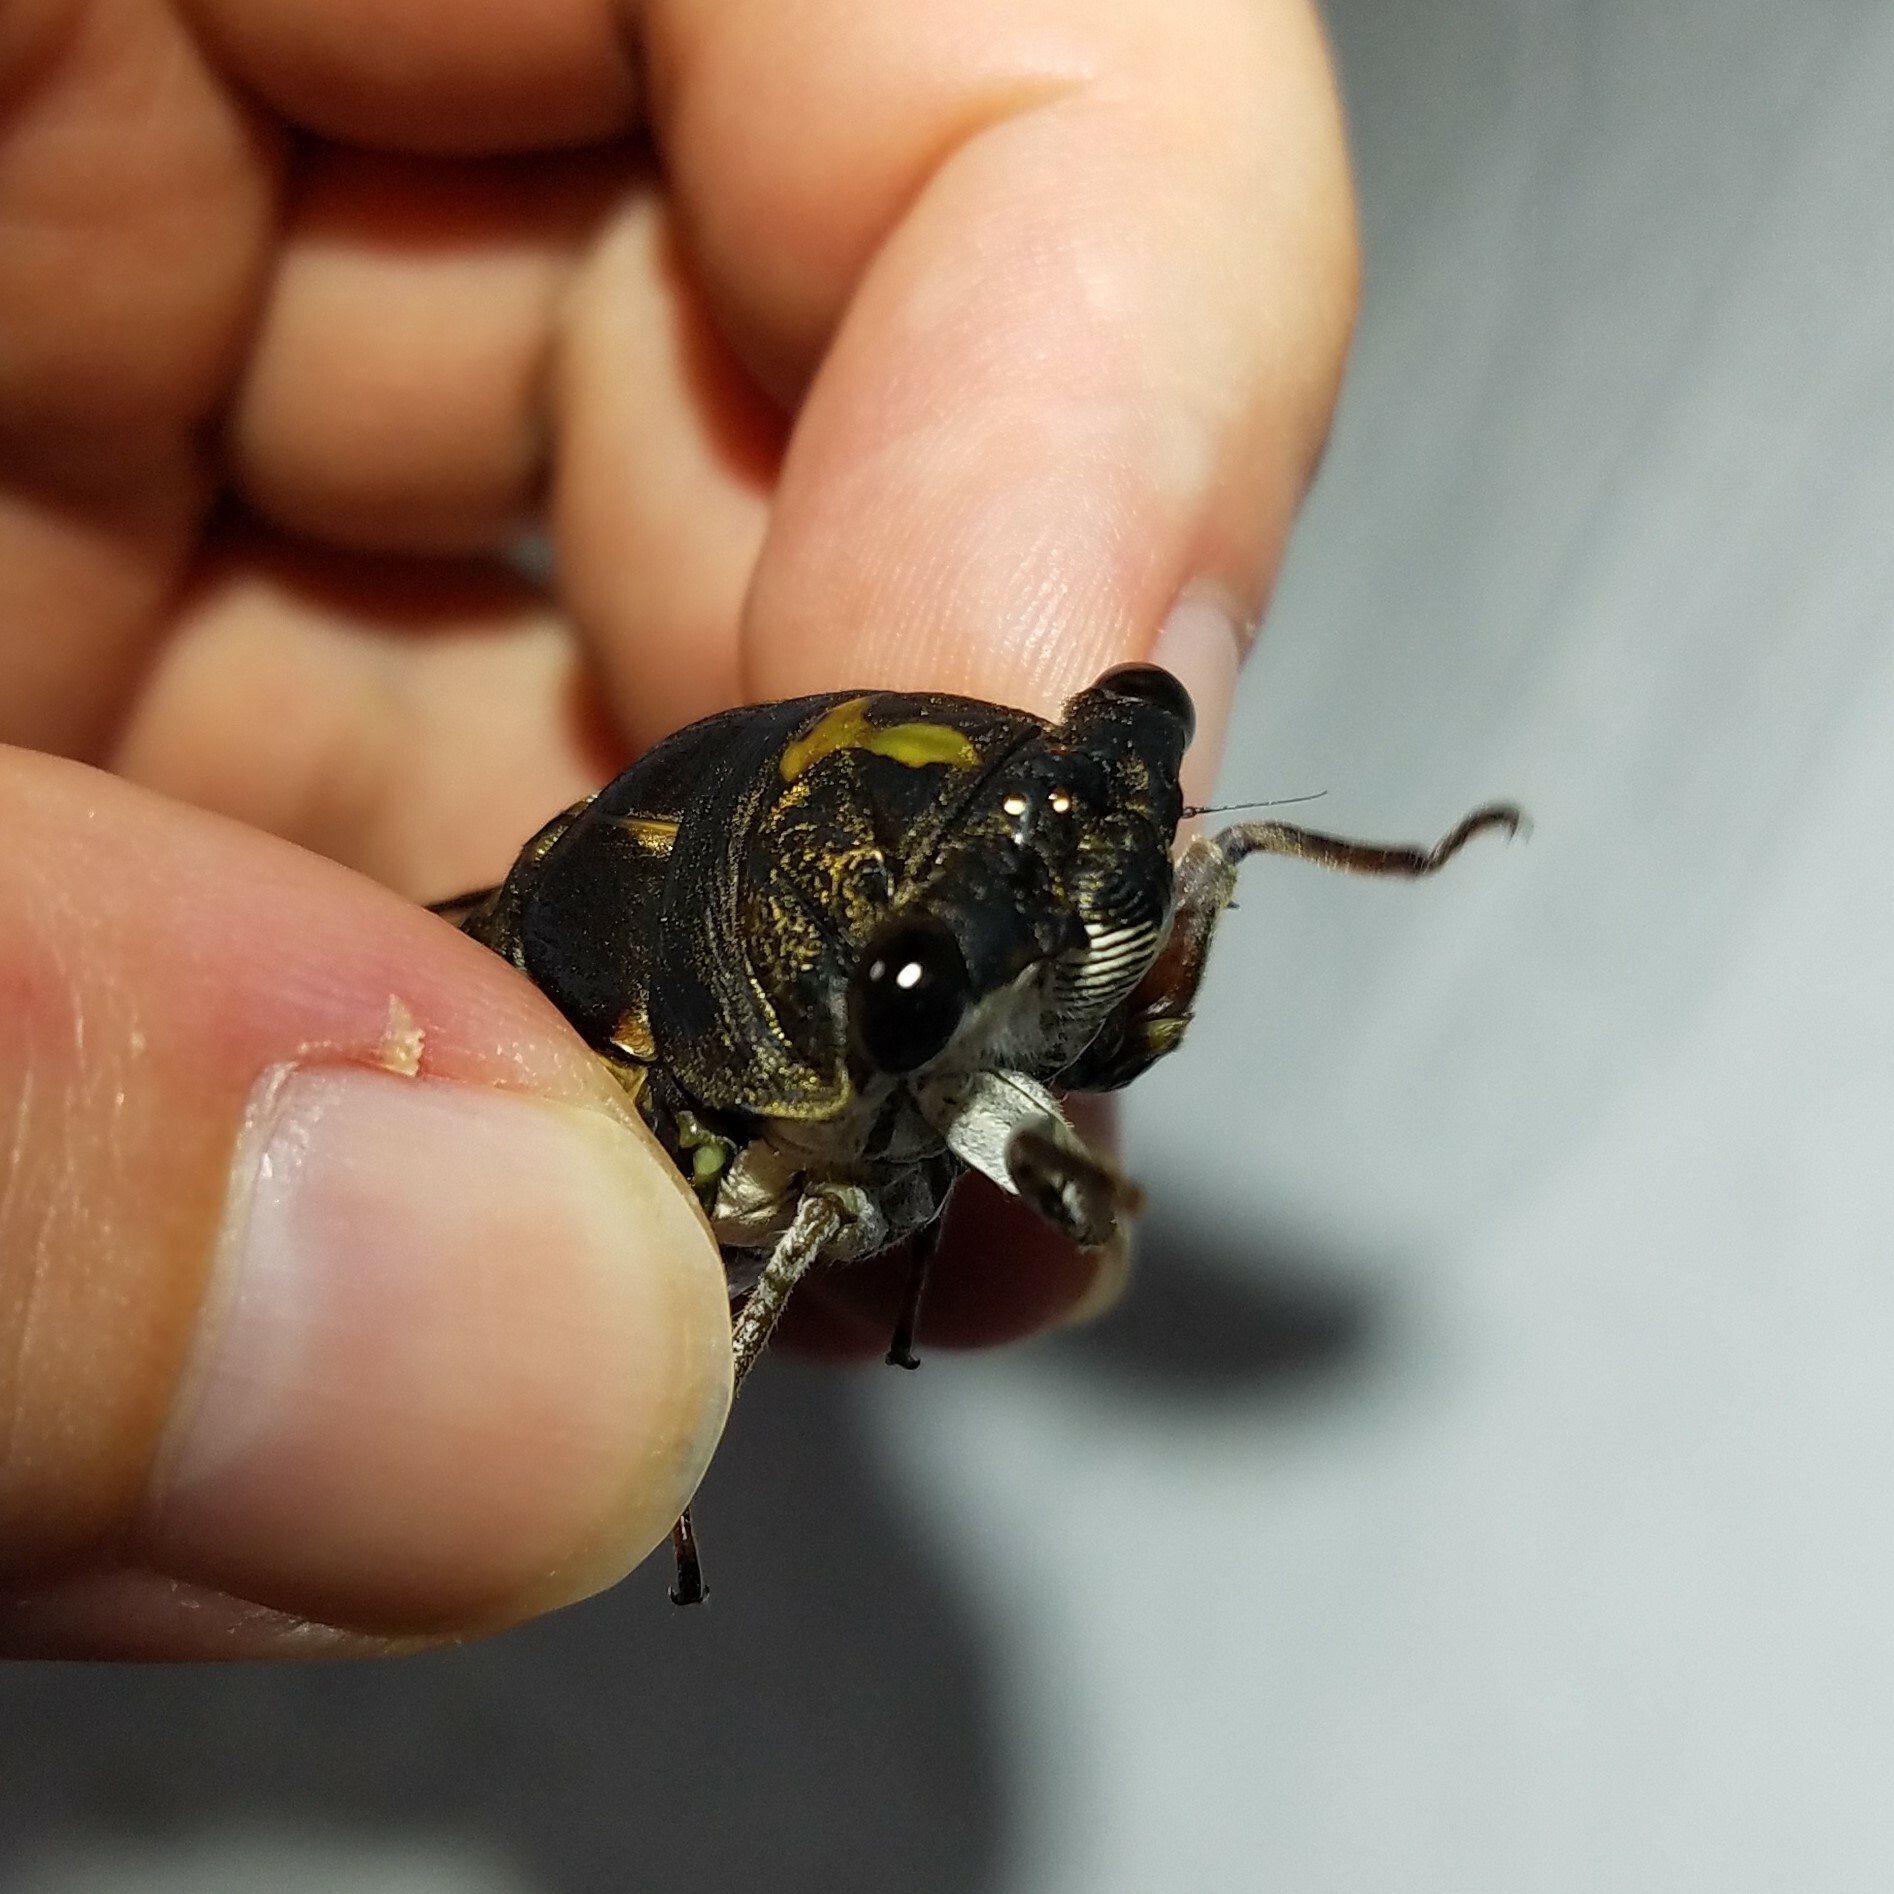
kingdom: Animalia
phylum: Arthropoda
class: Insecta
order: Hemiptera
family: Cicadidae
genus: Neotibicen
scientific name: Neotibicen lyricen
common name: Lyric cicada
